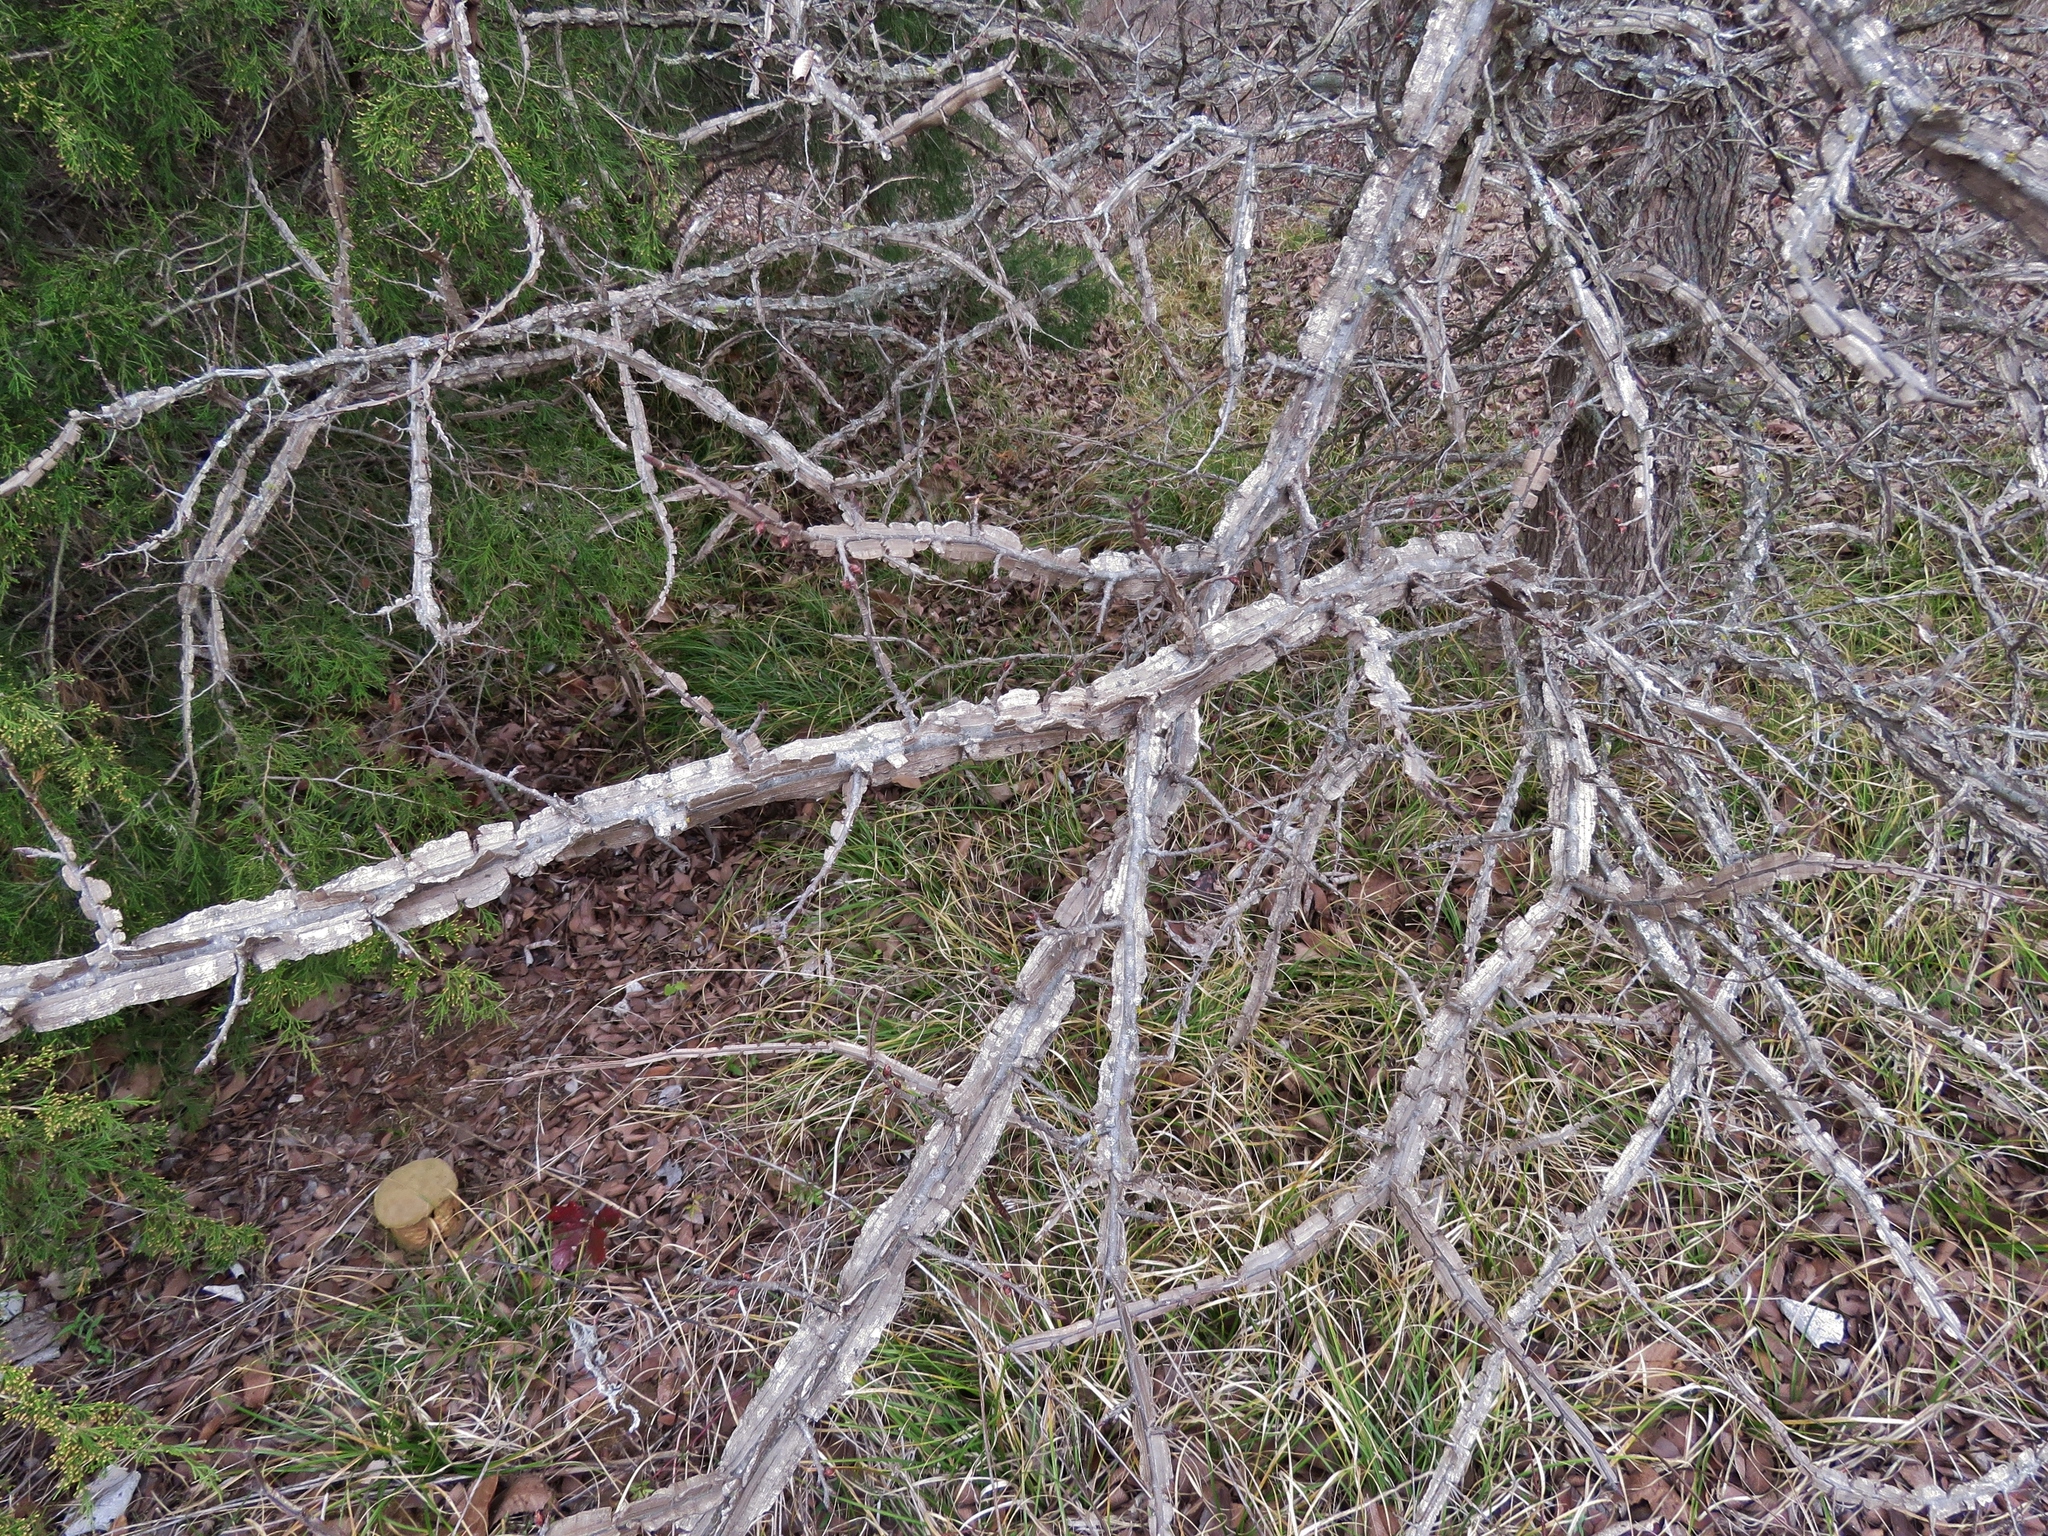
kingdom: Plantae
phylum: Tracheophyta
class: Magnoliopsida
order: Rosales
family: Ulmaceae
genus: Ulmus
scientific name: Ulmus alata
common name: Winged elm
